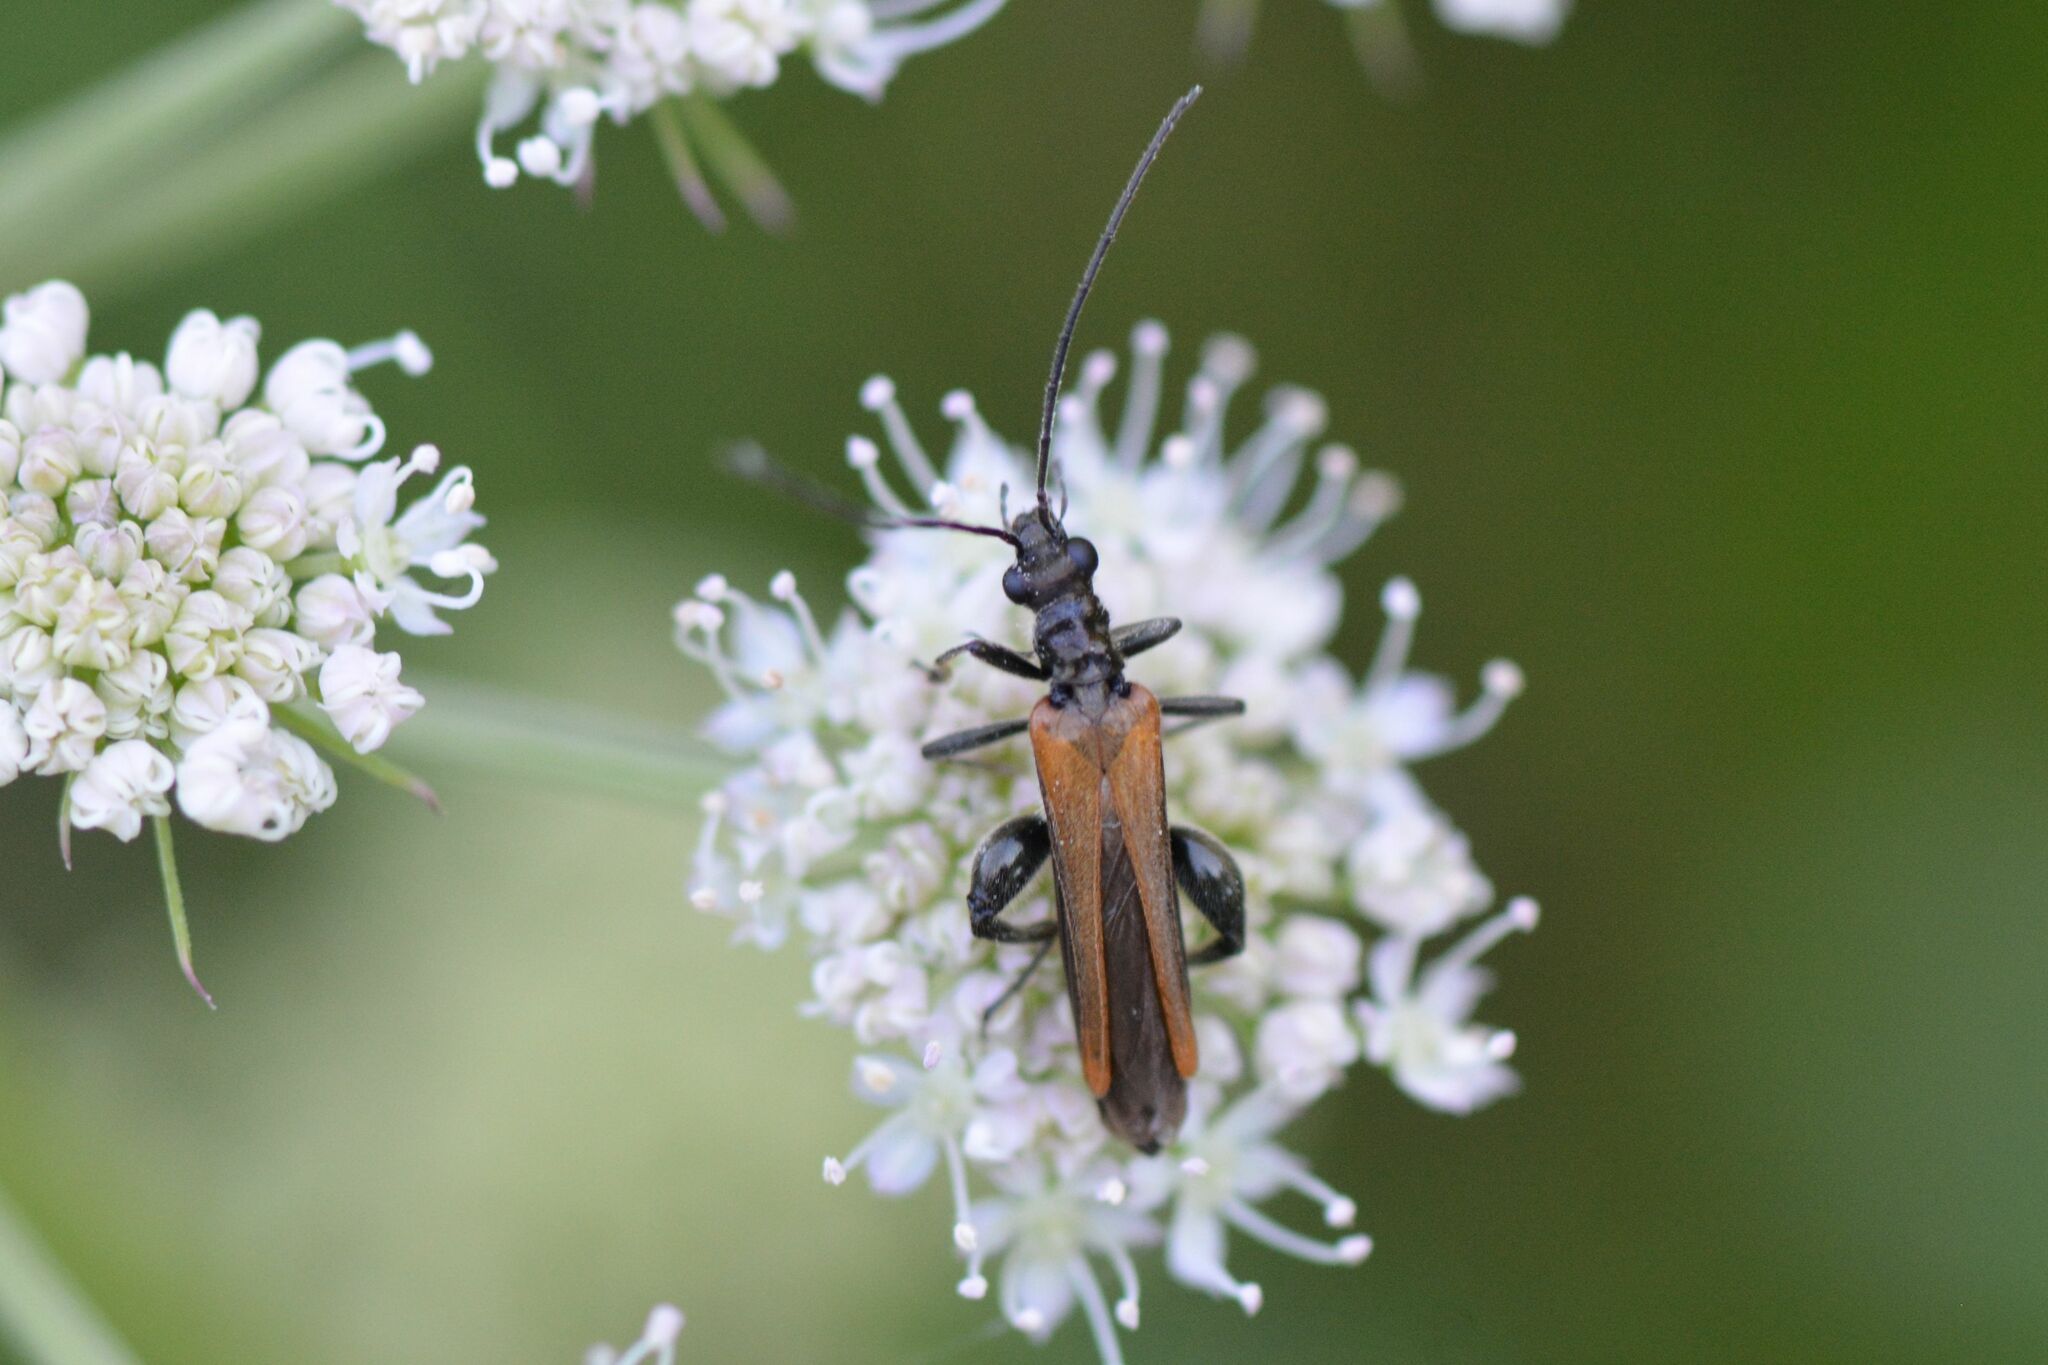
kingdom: Animalia
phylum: Arthropoda
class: Insecta
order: Coleoptera
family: Oedemeridae
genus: Oedemera
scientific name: Oedemera femorata
